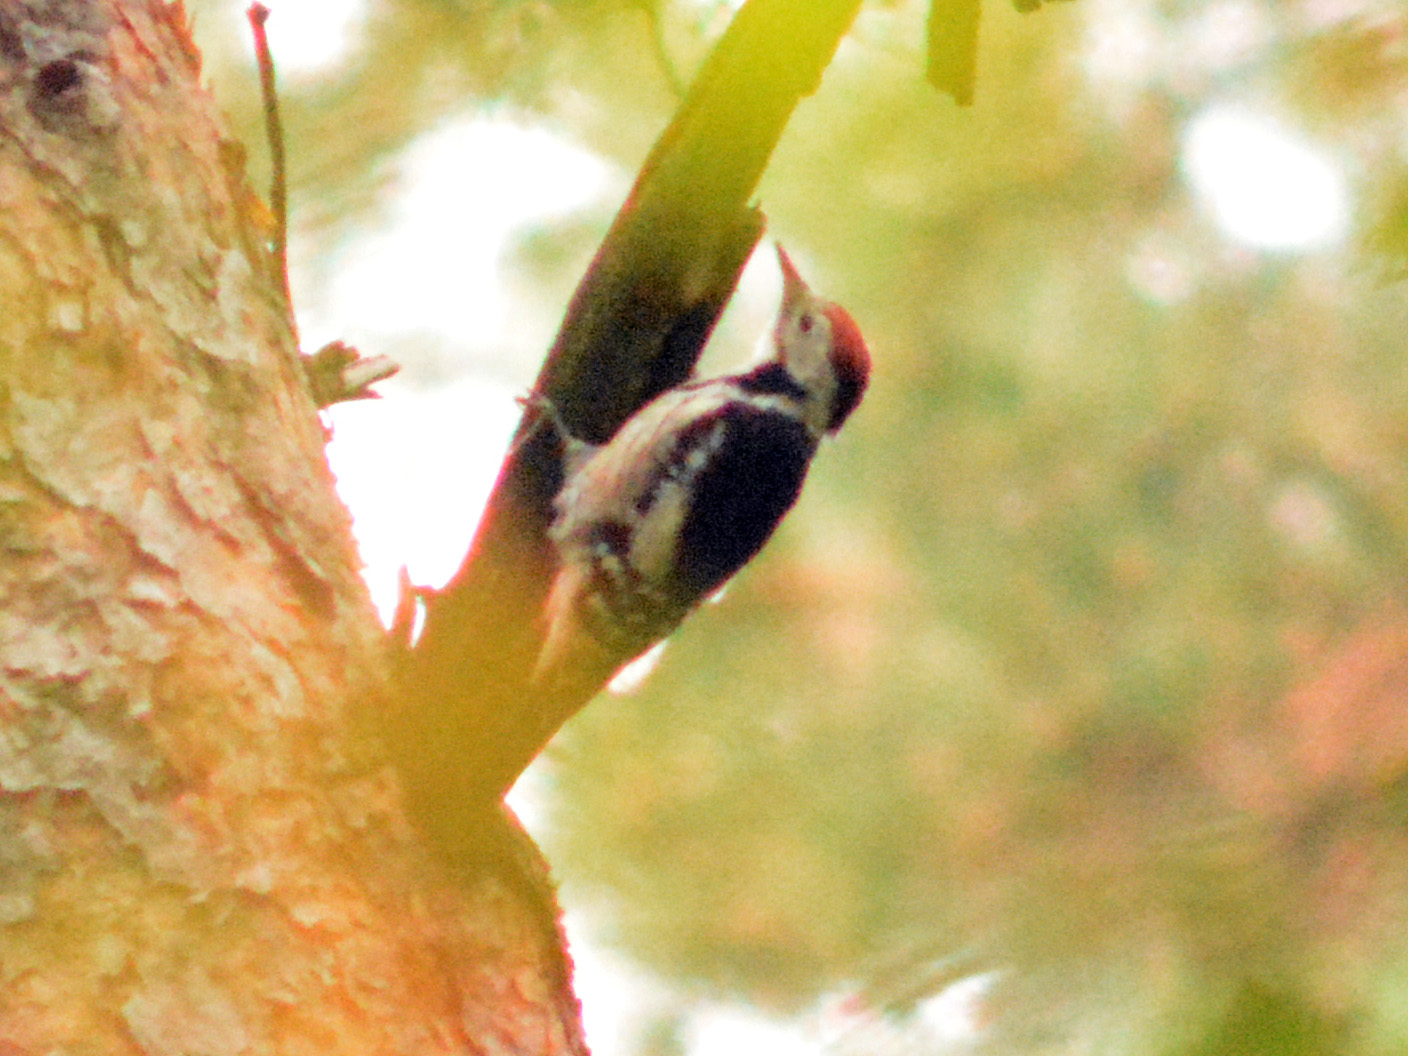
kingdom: Animalia
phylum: Chordata
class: Aves
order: Piciformes
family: Picidae
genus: Dendrocoptes
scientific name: Dendrocoptes medius
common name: Middle spotted woodpecker
